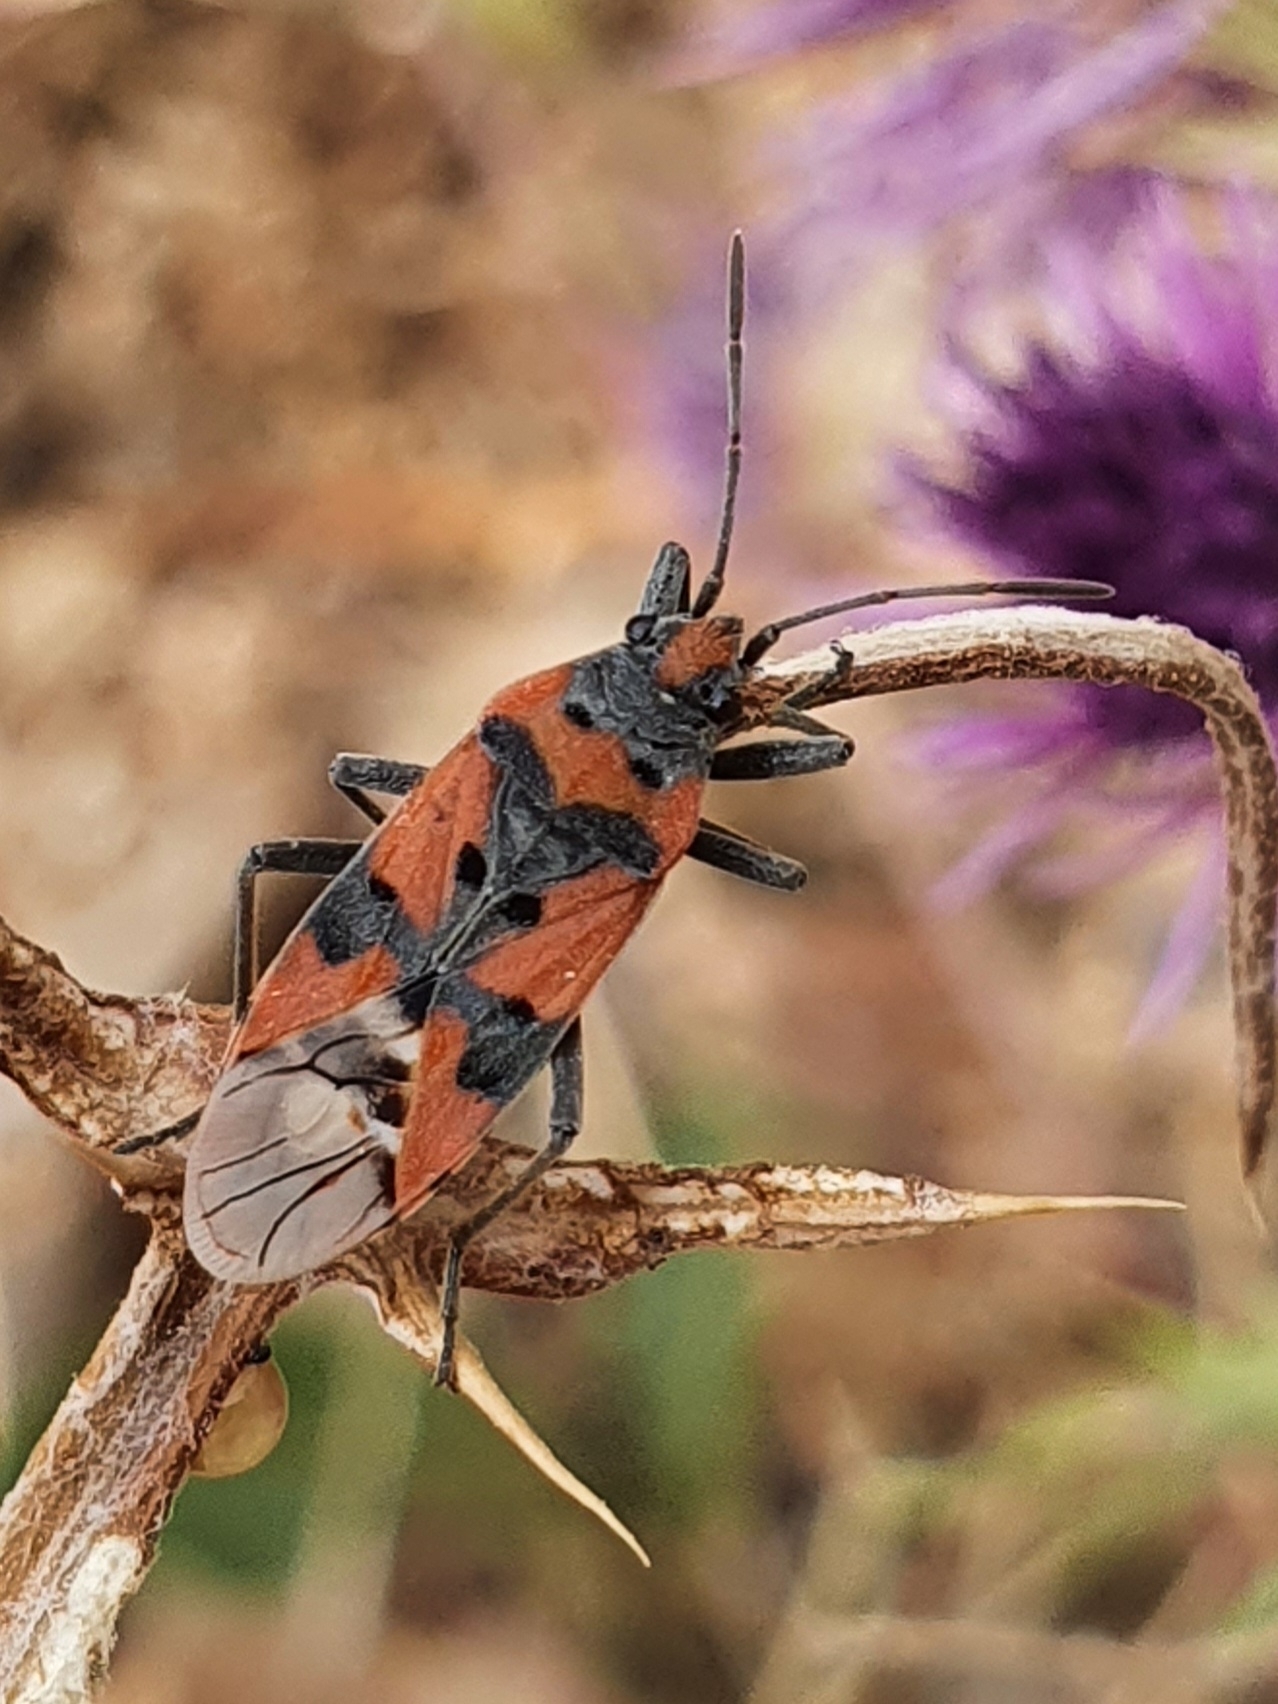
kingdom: Animalia
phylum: Arthropoda
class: Insecta
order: Hemiptera
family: Lygaeidae
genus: Lygaeus
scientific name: Lygaeus equestris
